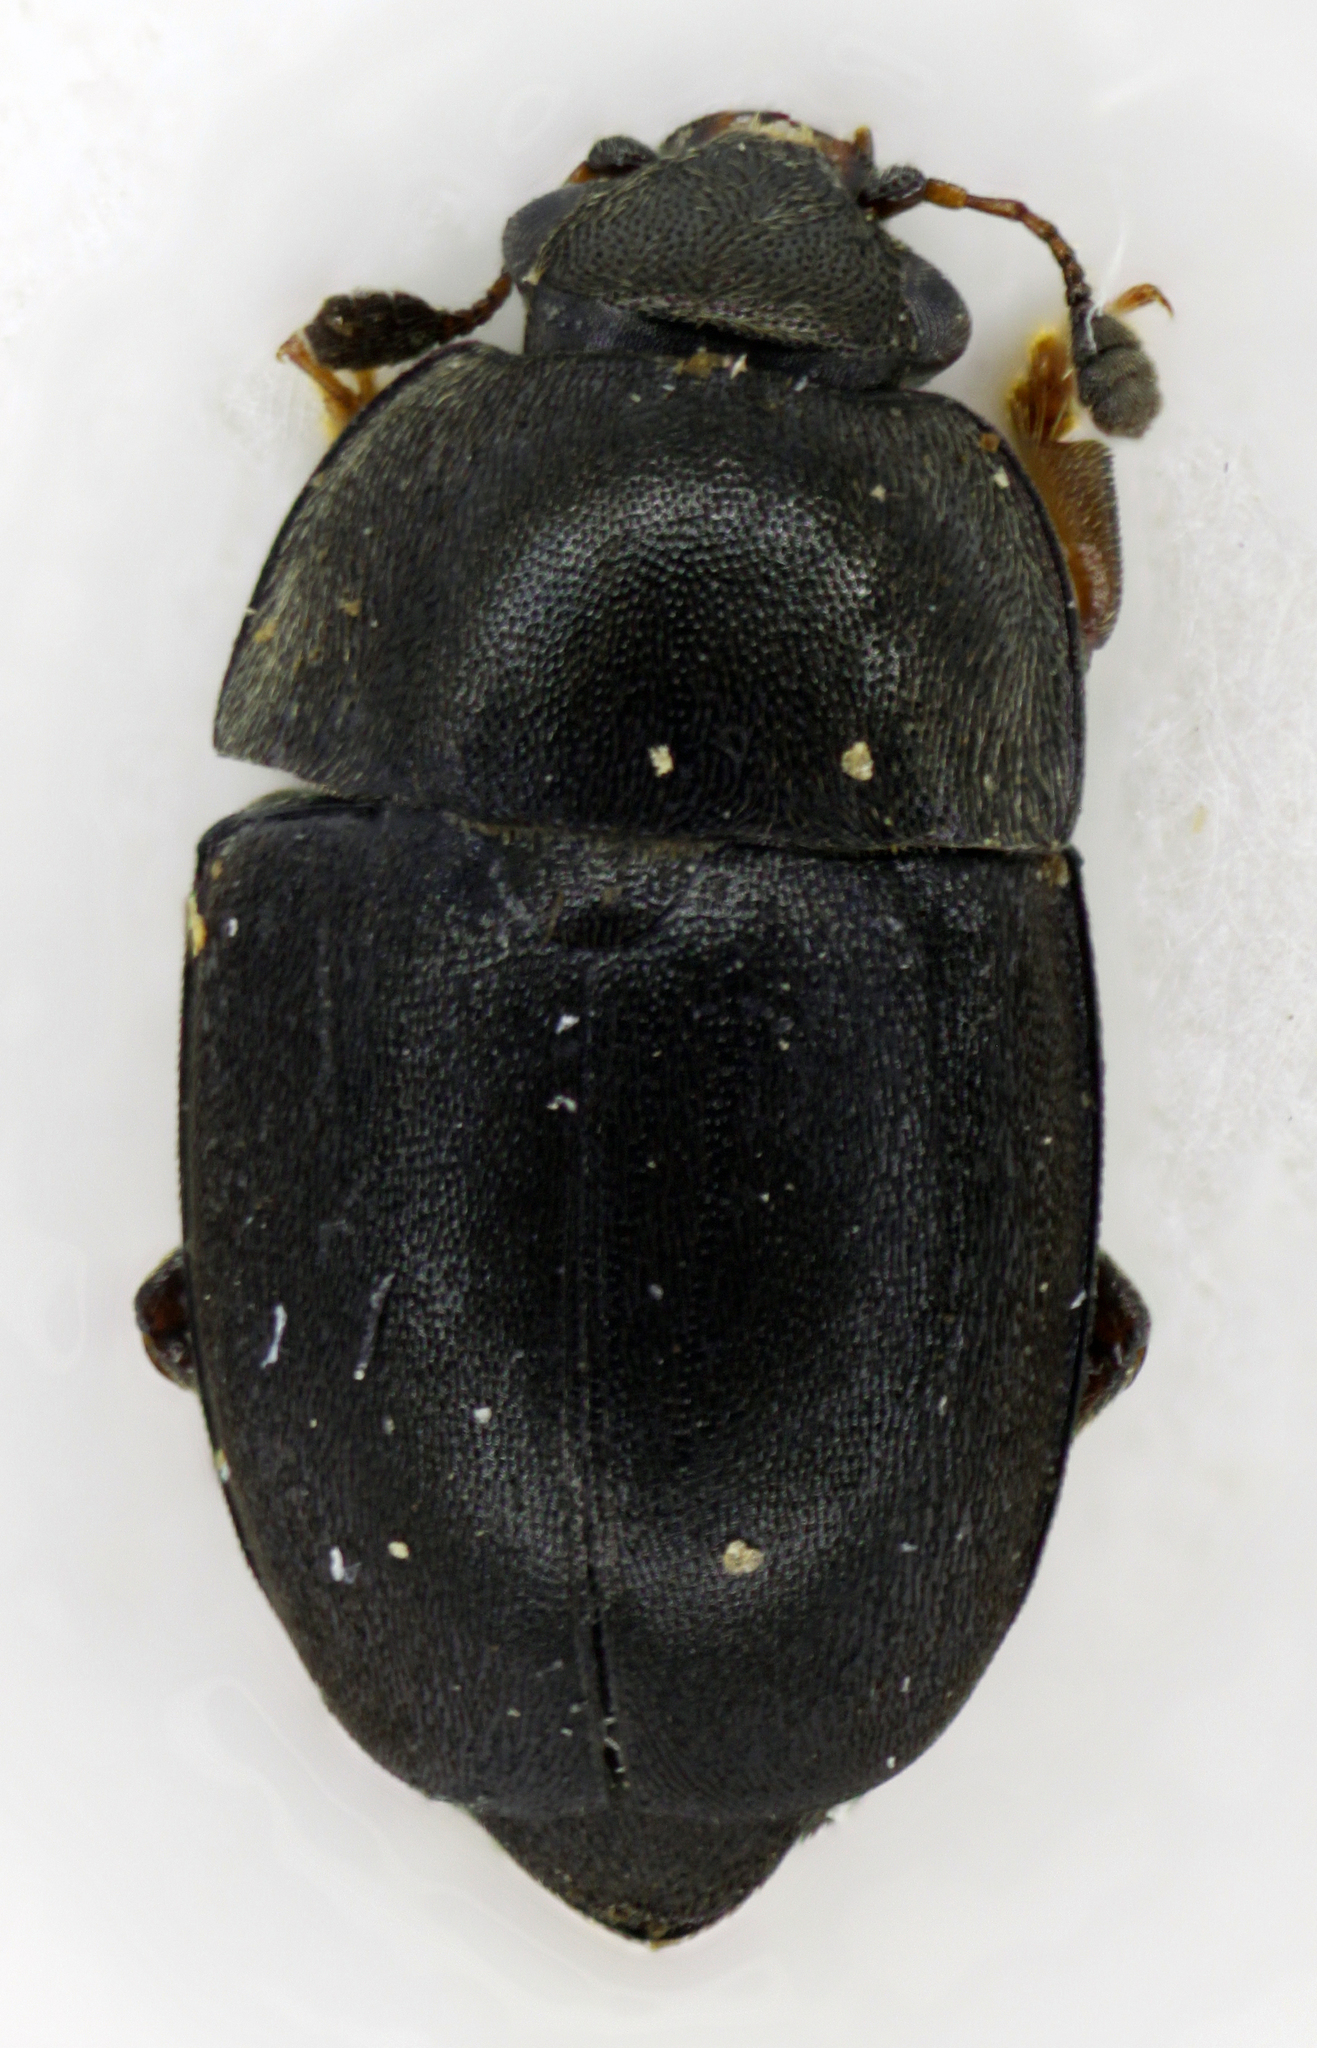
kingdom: Animalia
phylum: Arthropoda
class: Insecta
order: Coleoptera
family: Nitidulidae
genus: Meligethes
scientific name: Meligethes flavimanus
